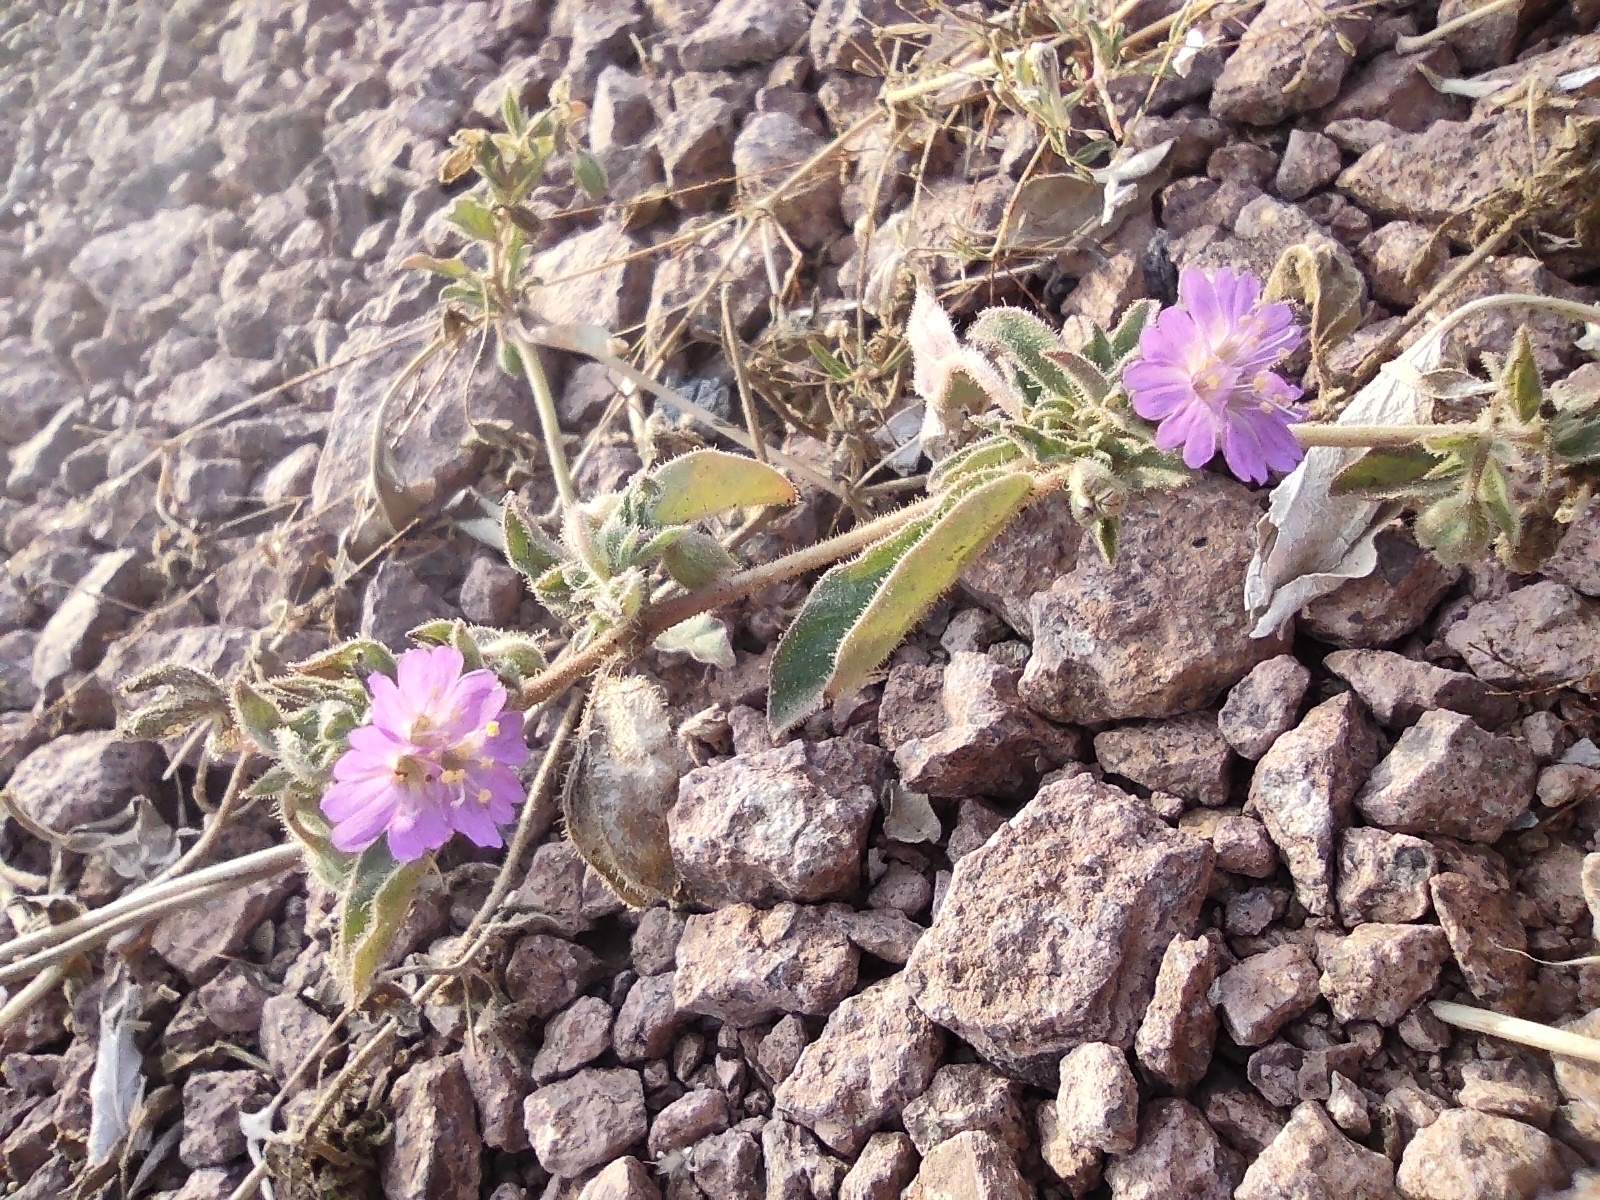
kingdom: Plantae
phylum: Tracheophyta
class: Magnoliopsida
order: Caryophyllales
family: Nyctaginaceae
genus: Allionia
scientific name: Allionia incarnata
